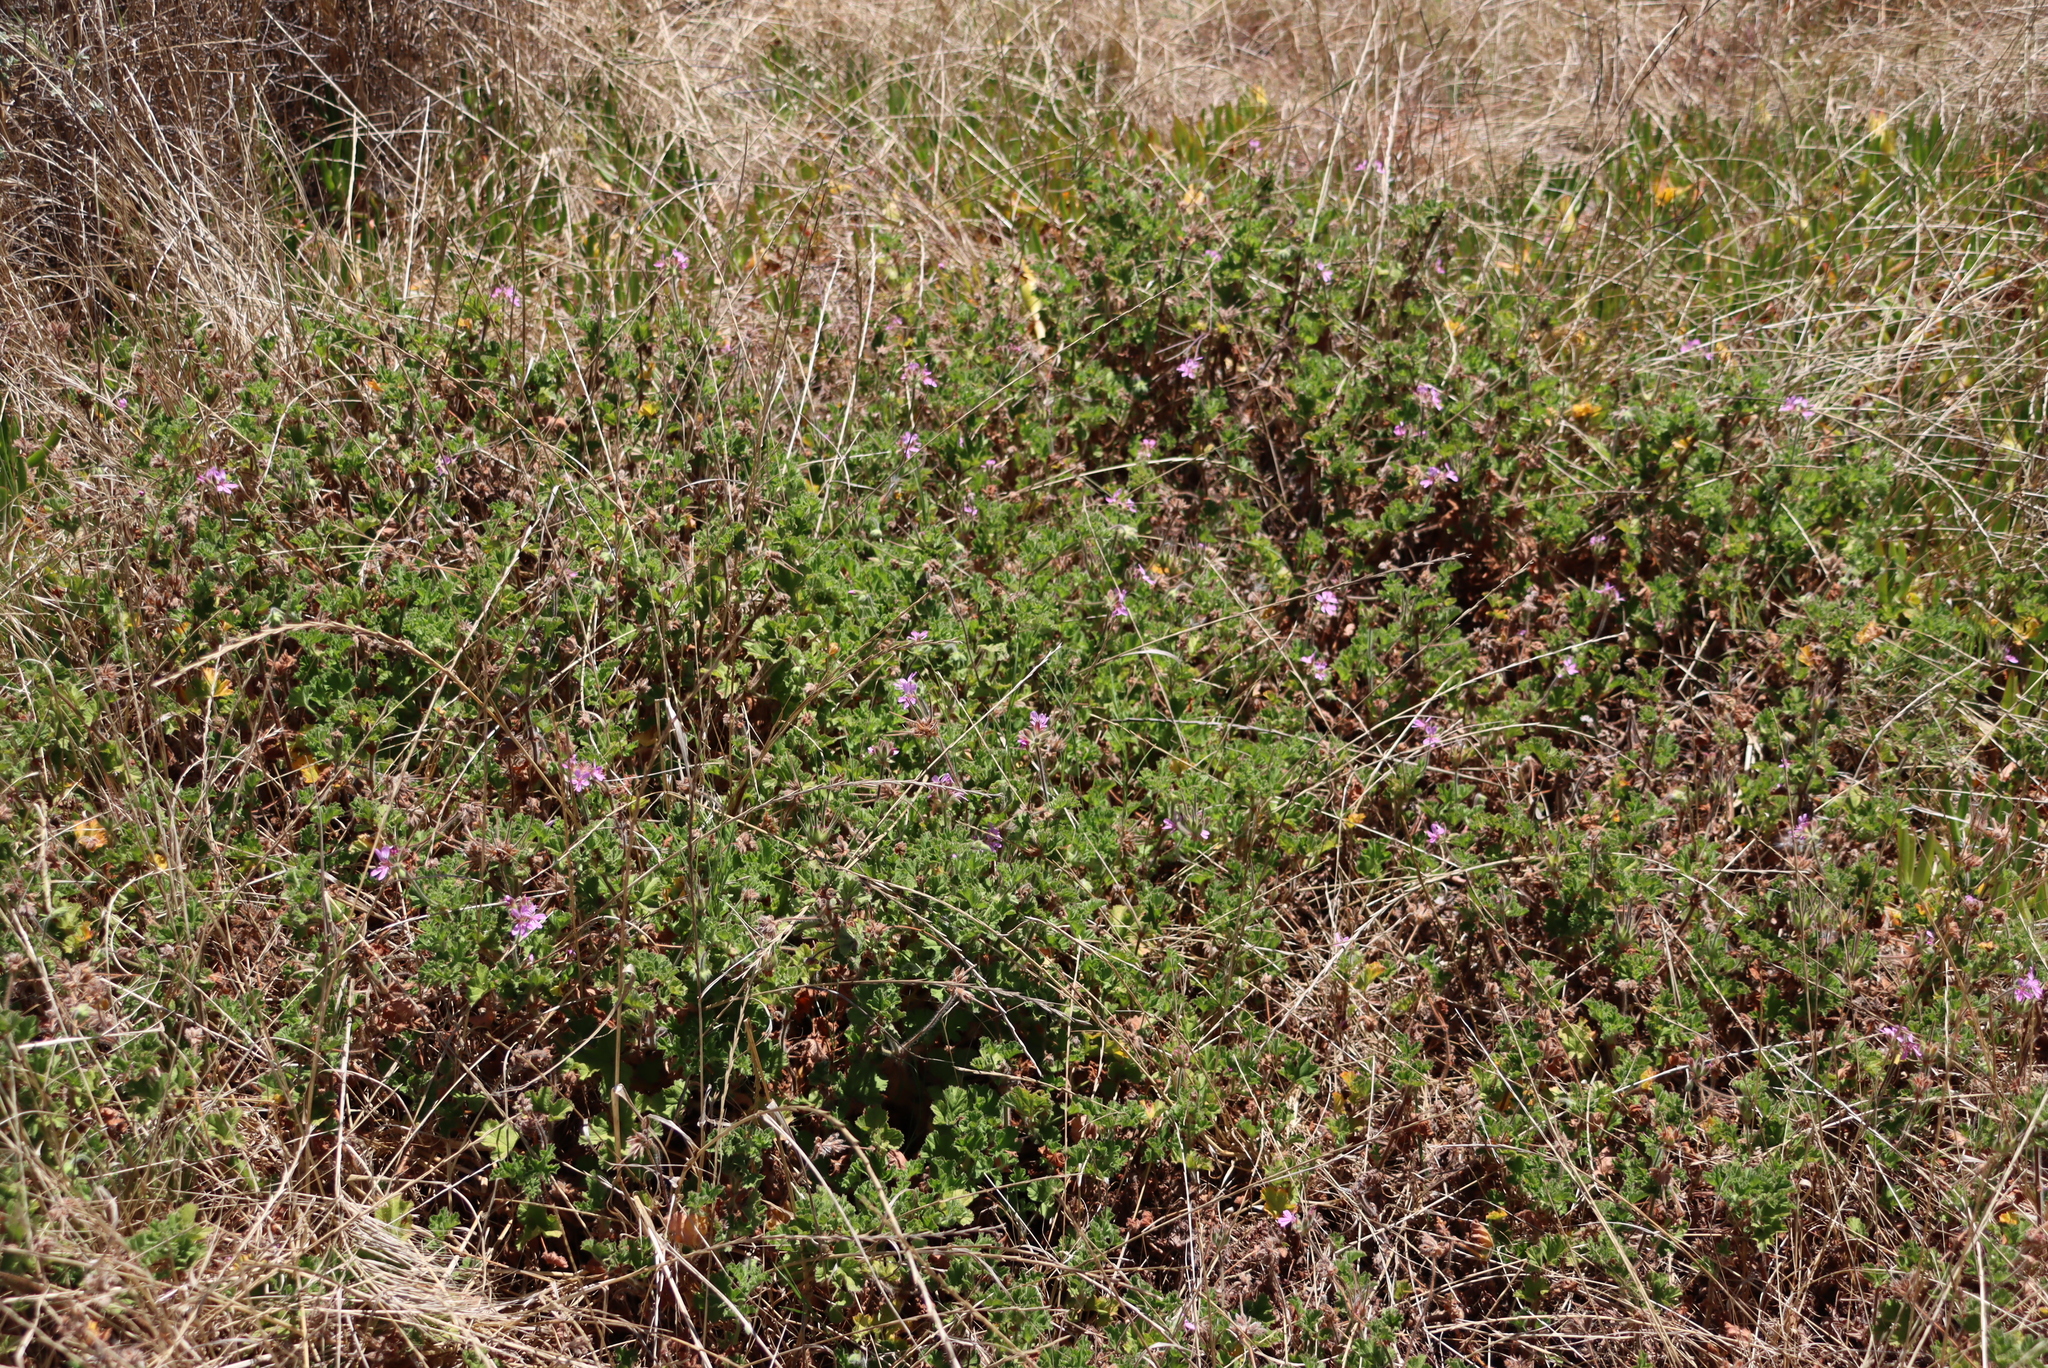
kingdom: Plantae
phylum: Tracheophyta
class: Magnoliopsida
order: Geraniales
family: Geraniaceae
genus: Pelargonium
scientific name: Pelargonium capitatum
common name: Rose scented geranium
